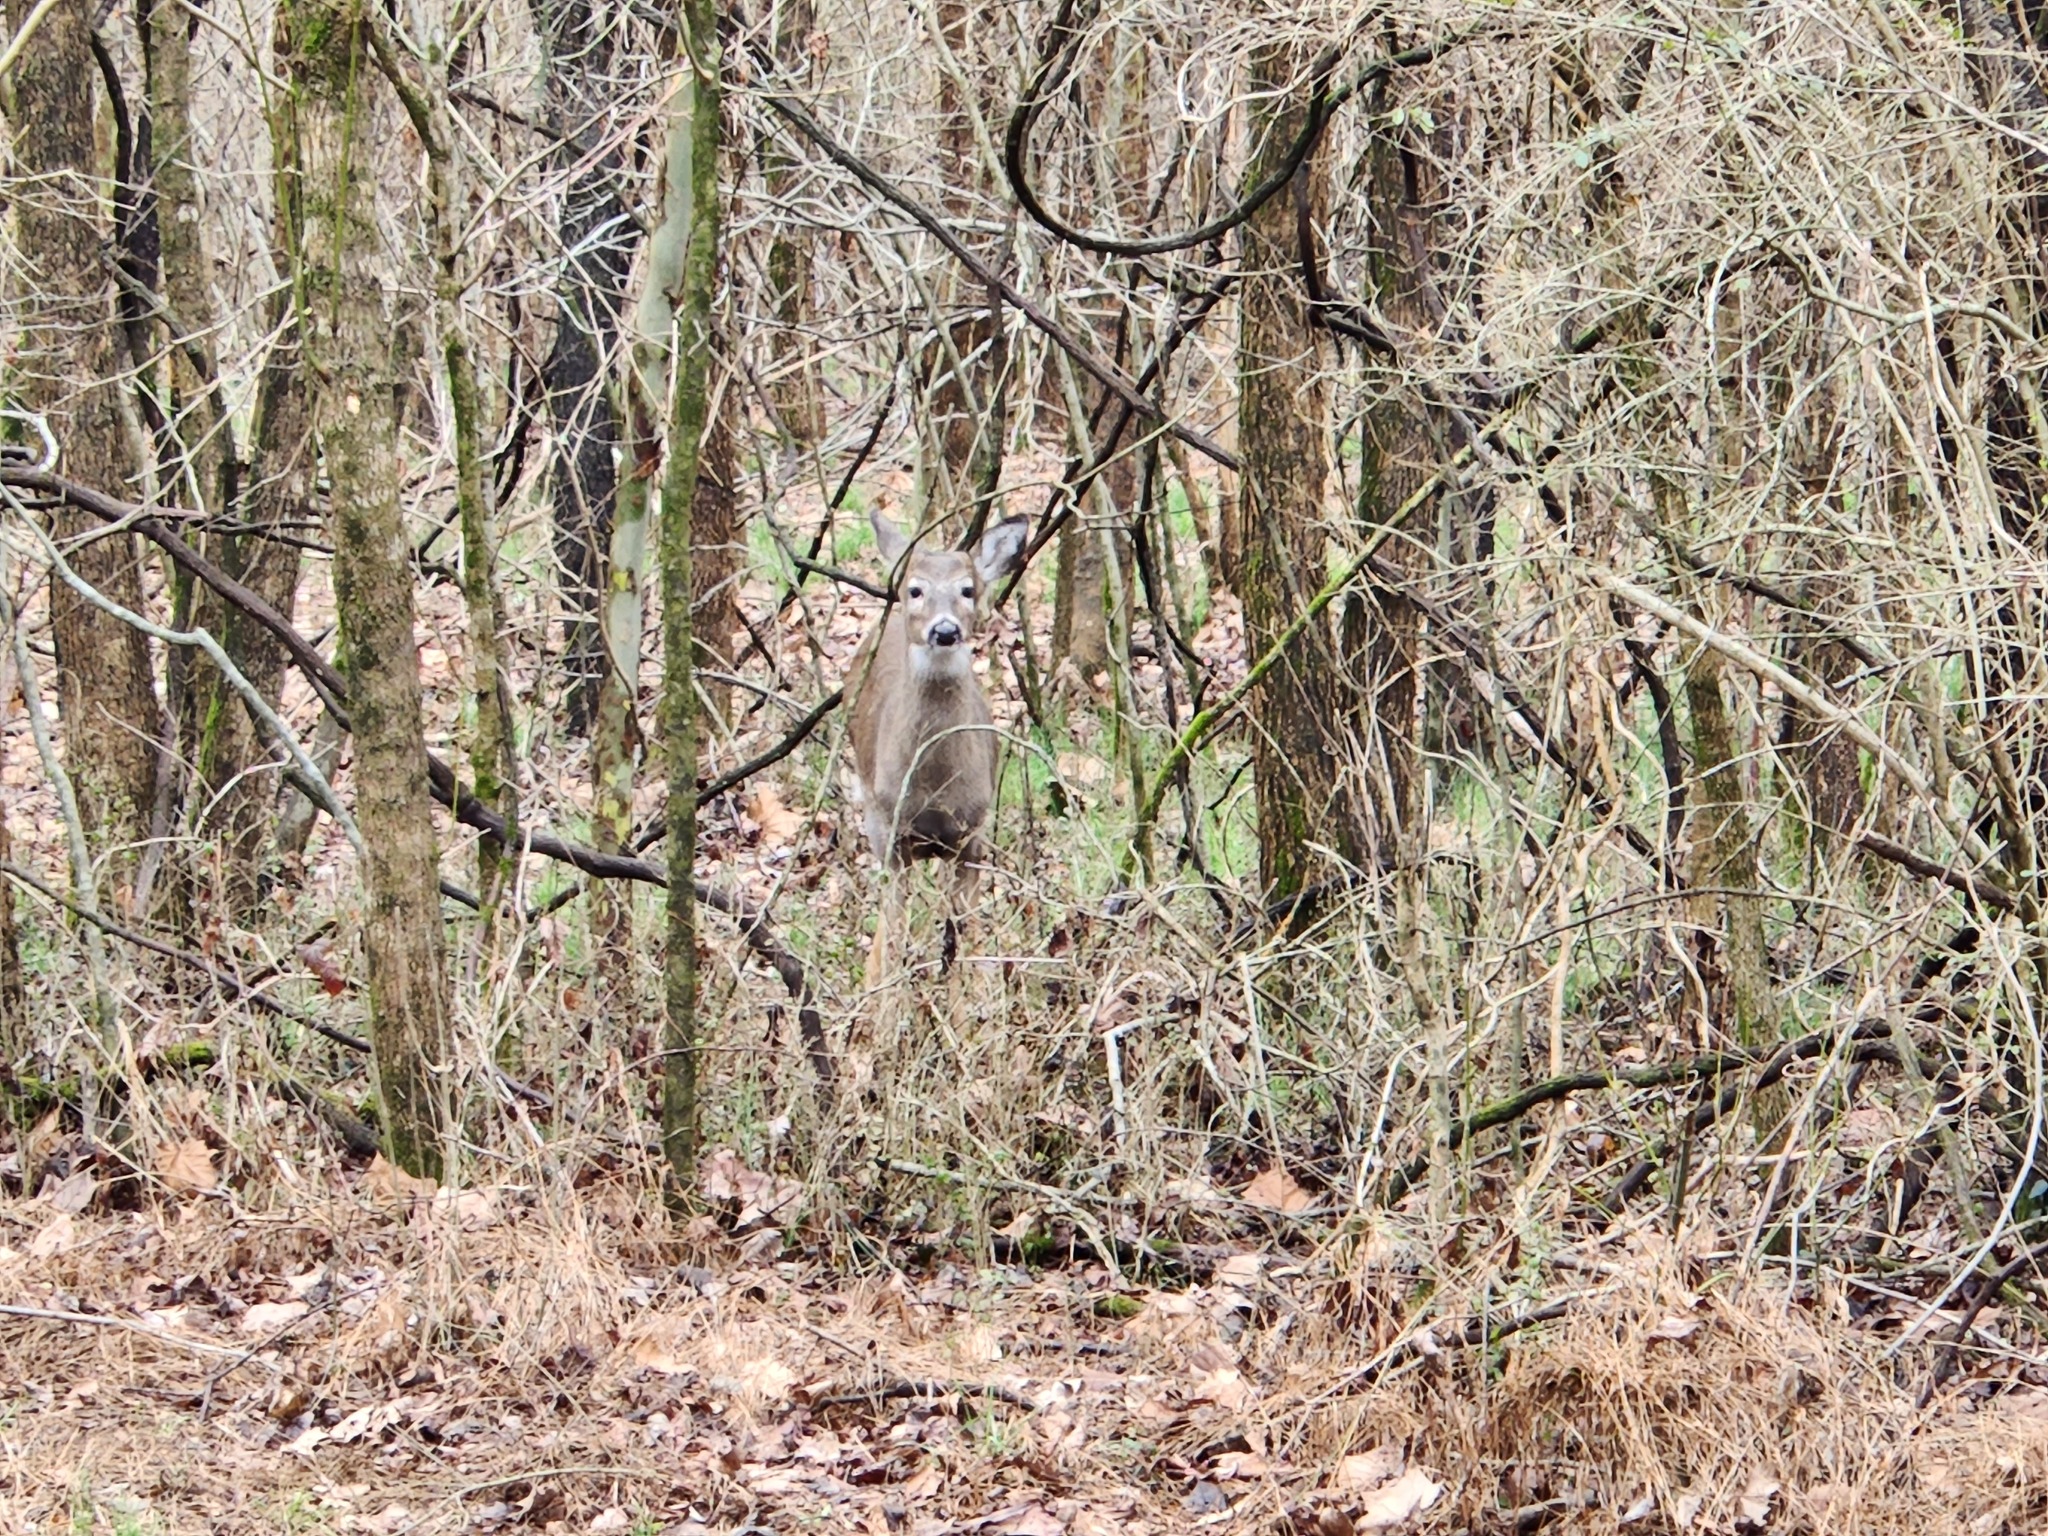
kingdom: Animalia
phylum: Chordata
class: Mammalia
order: Artiodactyla
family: Cervidae
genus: Odocoileus
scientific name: Odocoileus virginianus
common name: White-tailed deer
